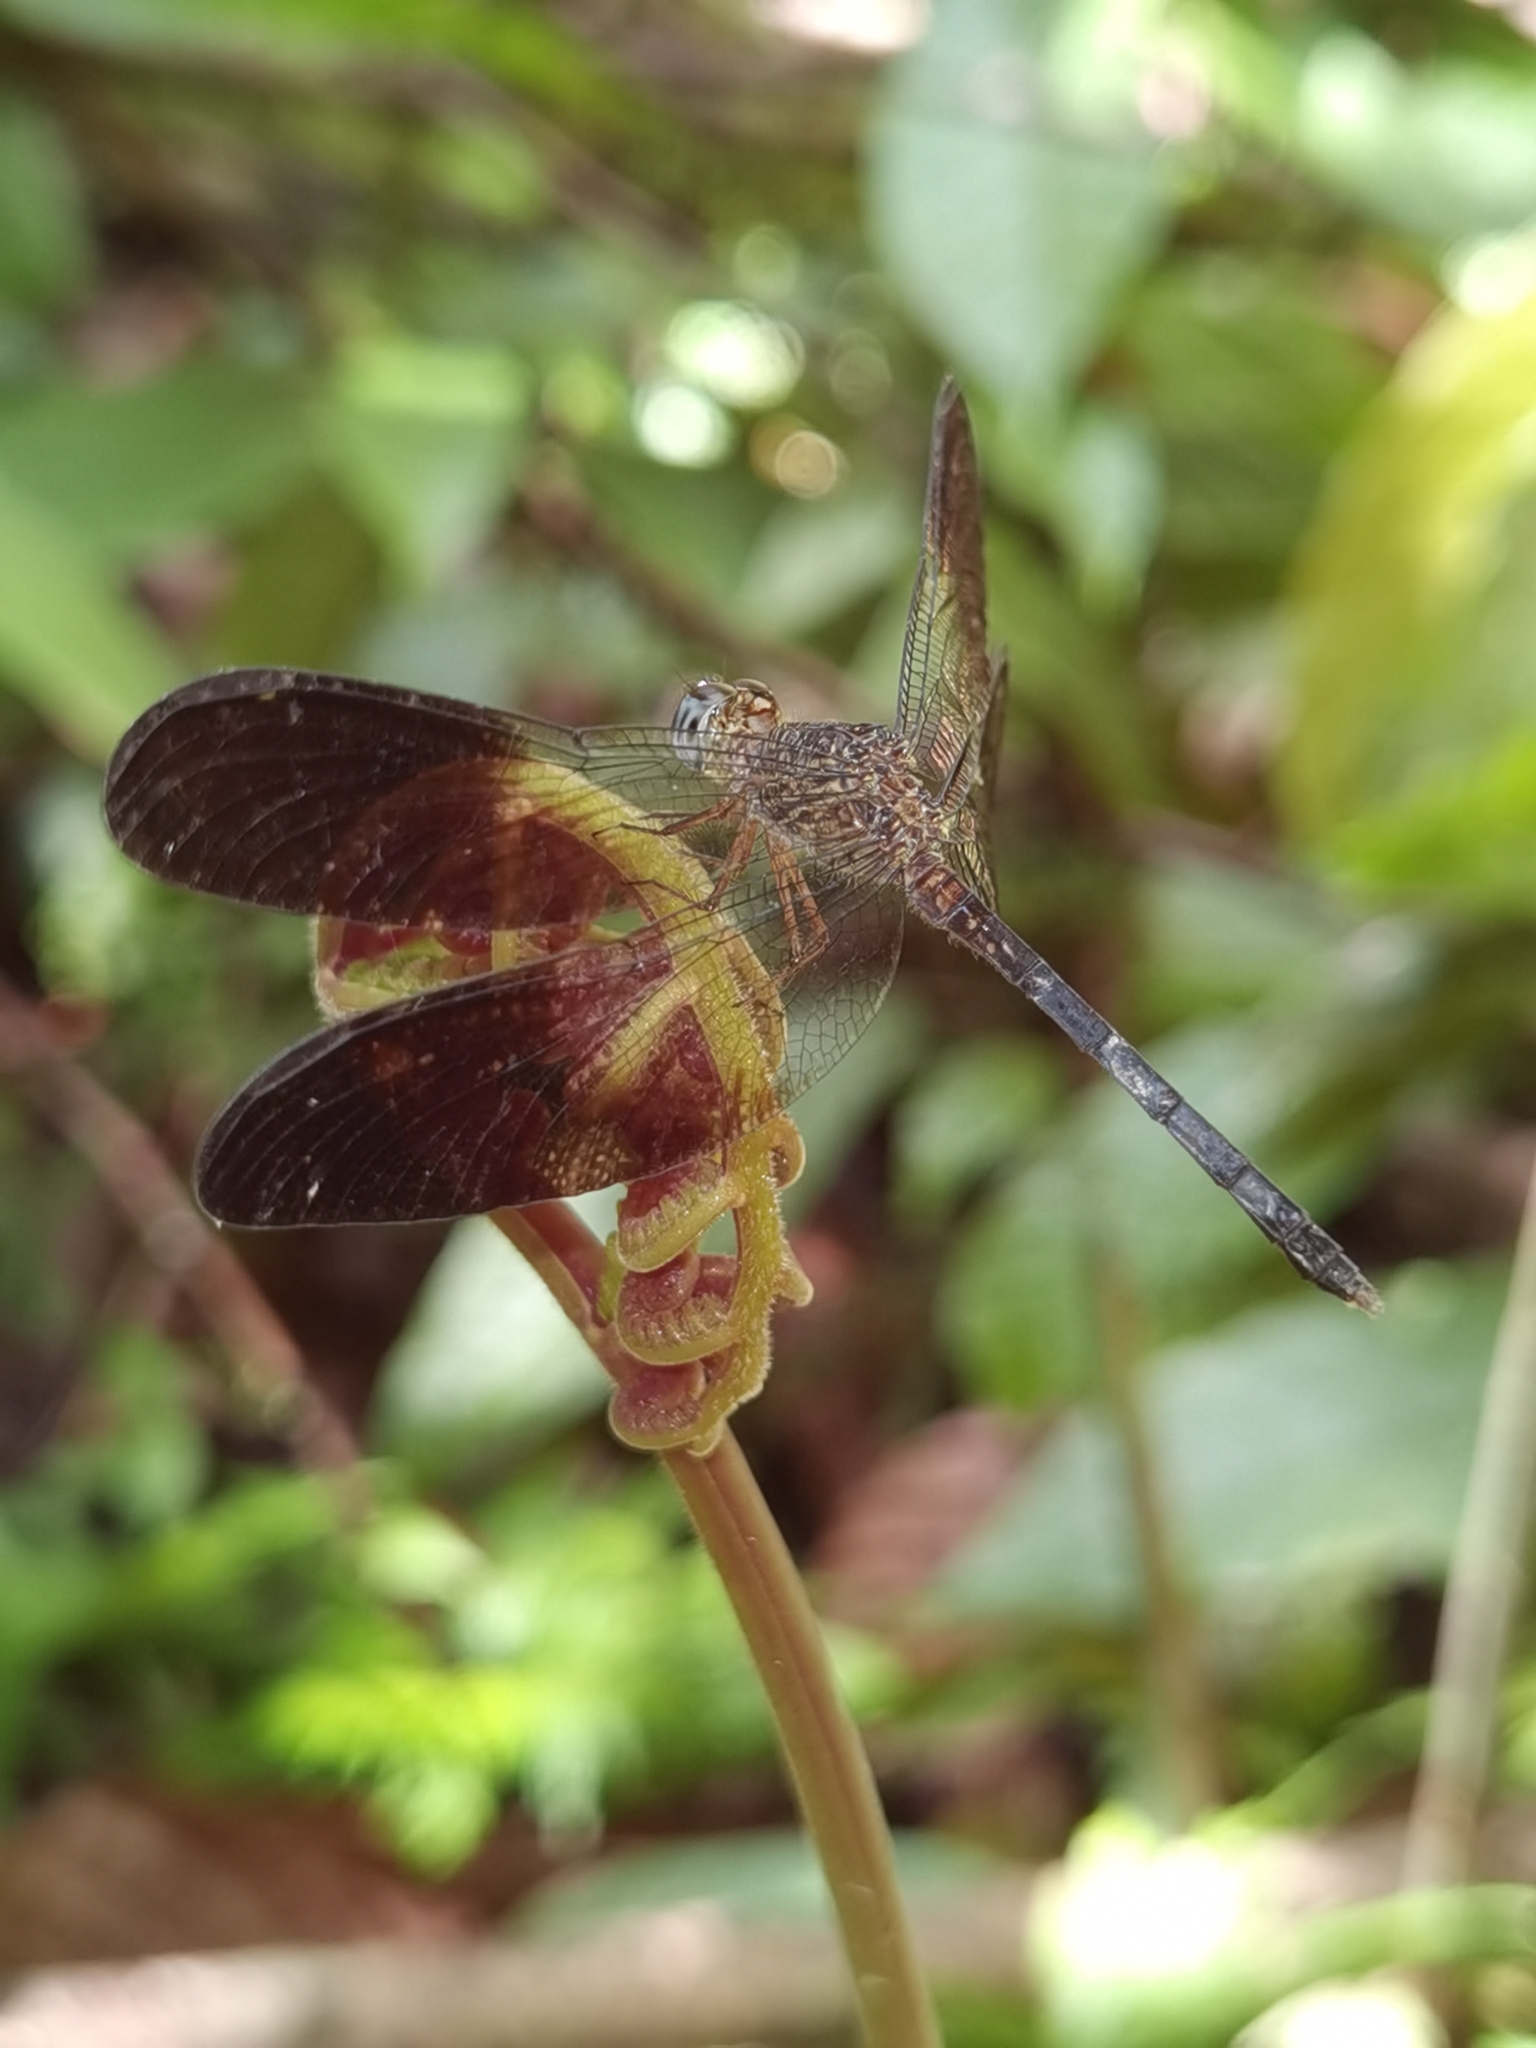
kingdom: Animalia
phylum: Arthropoda
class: Insecta
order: Odonata
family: Libellulidae
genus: Uracis
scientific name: Uracis fastigiata
